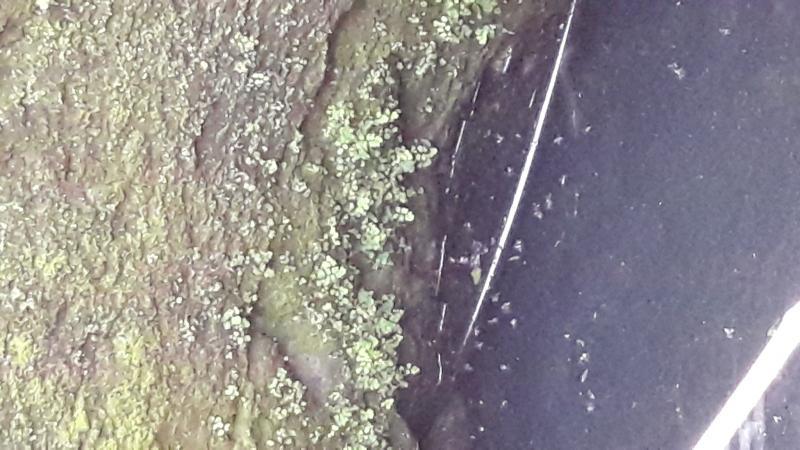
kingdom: Plantae
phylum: Tracheophyta
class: Polypodiopsida
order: Polypodiales
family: Pteridaceae
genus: Adiantum
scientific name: Adiantum capillus-veneris
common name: Maidenhair fern
